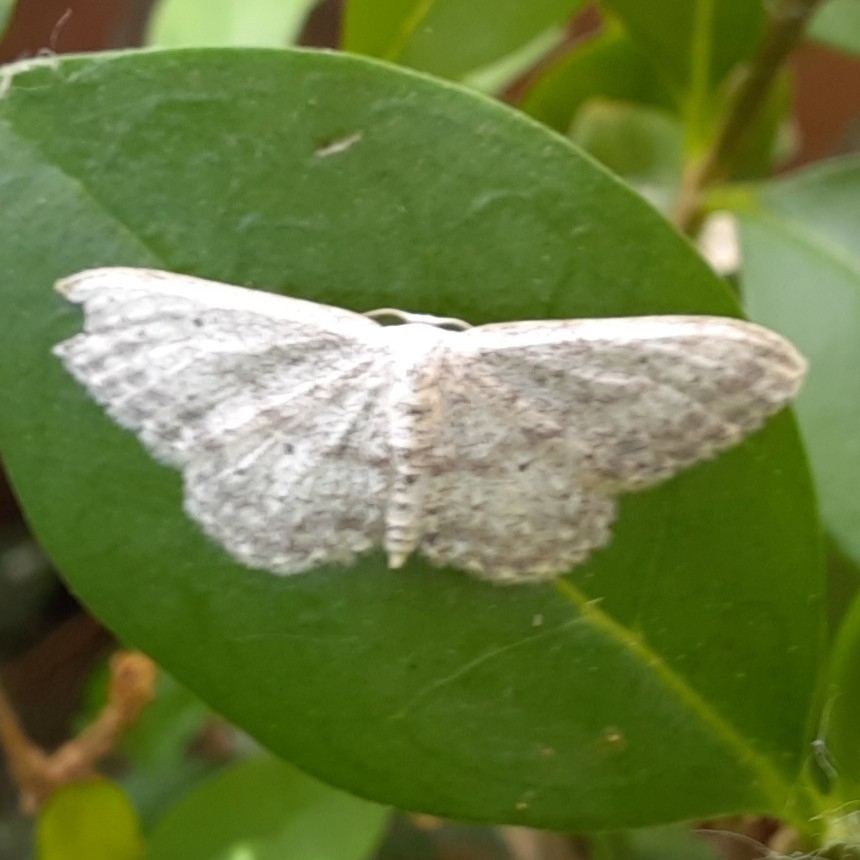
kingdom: Animalia
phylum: Arthropoda
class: Insecta
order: Lepidoptera
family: Geometridae
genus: Idaea
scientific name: Idaea seriata
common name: Small dusty wave
